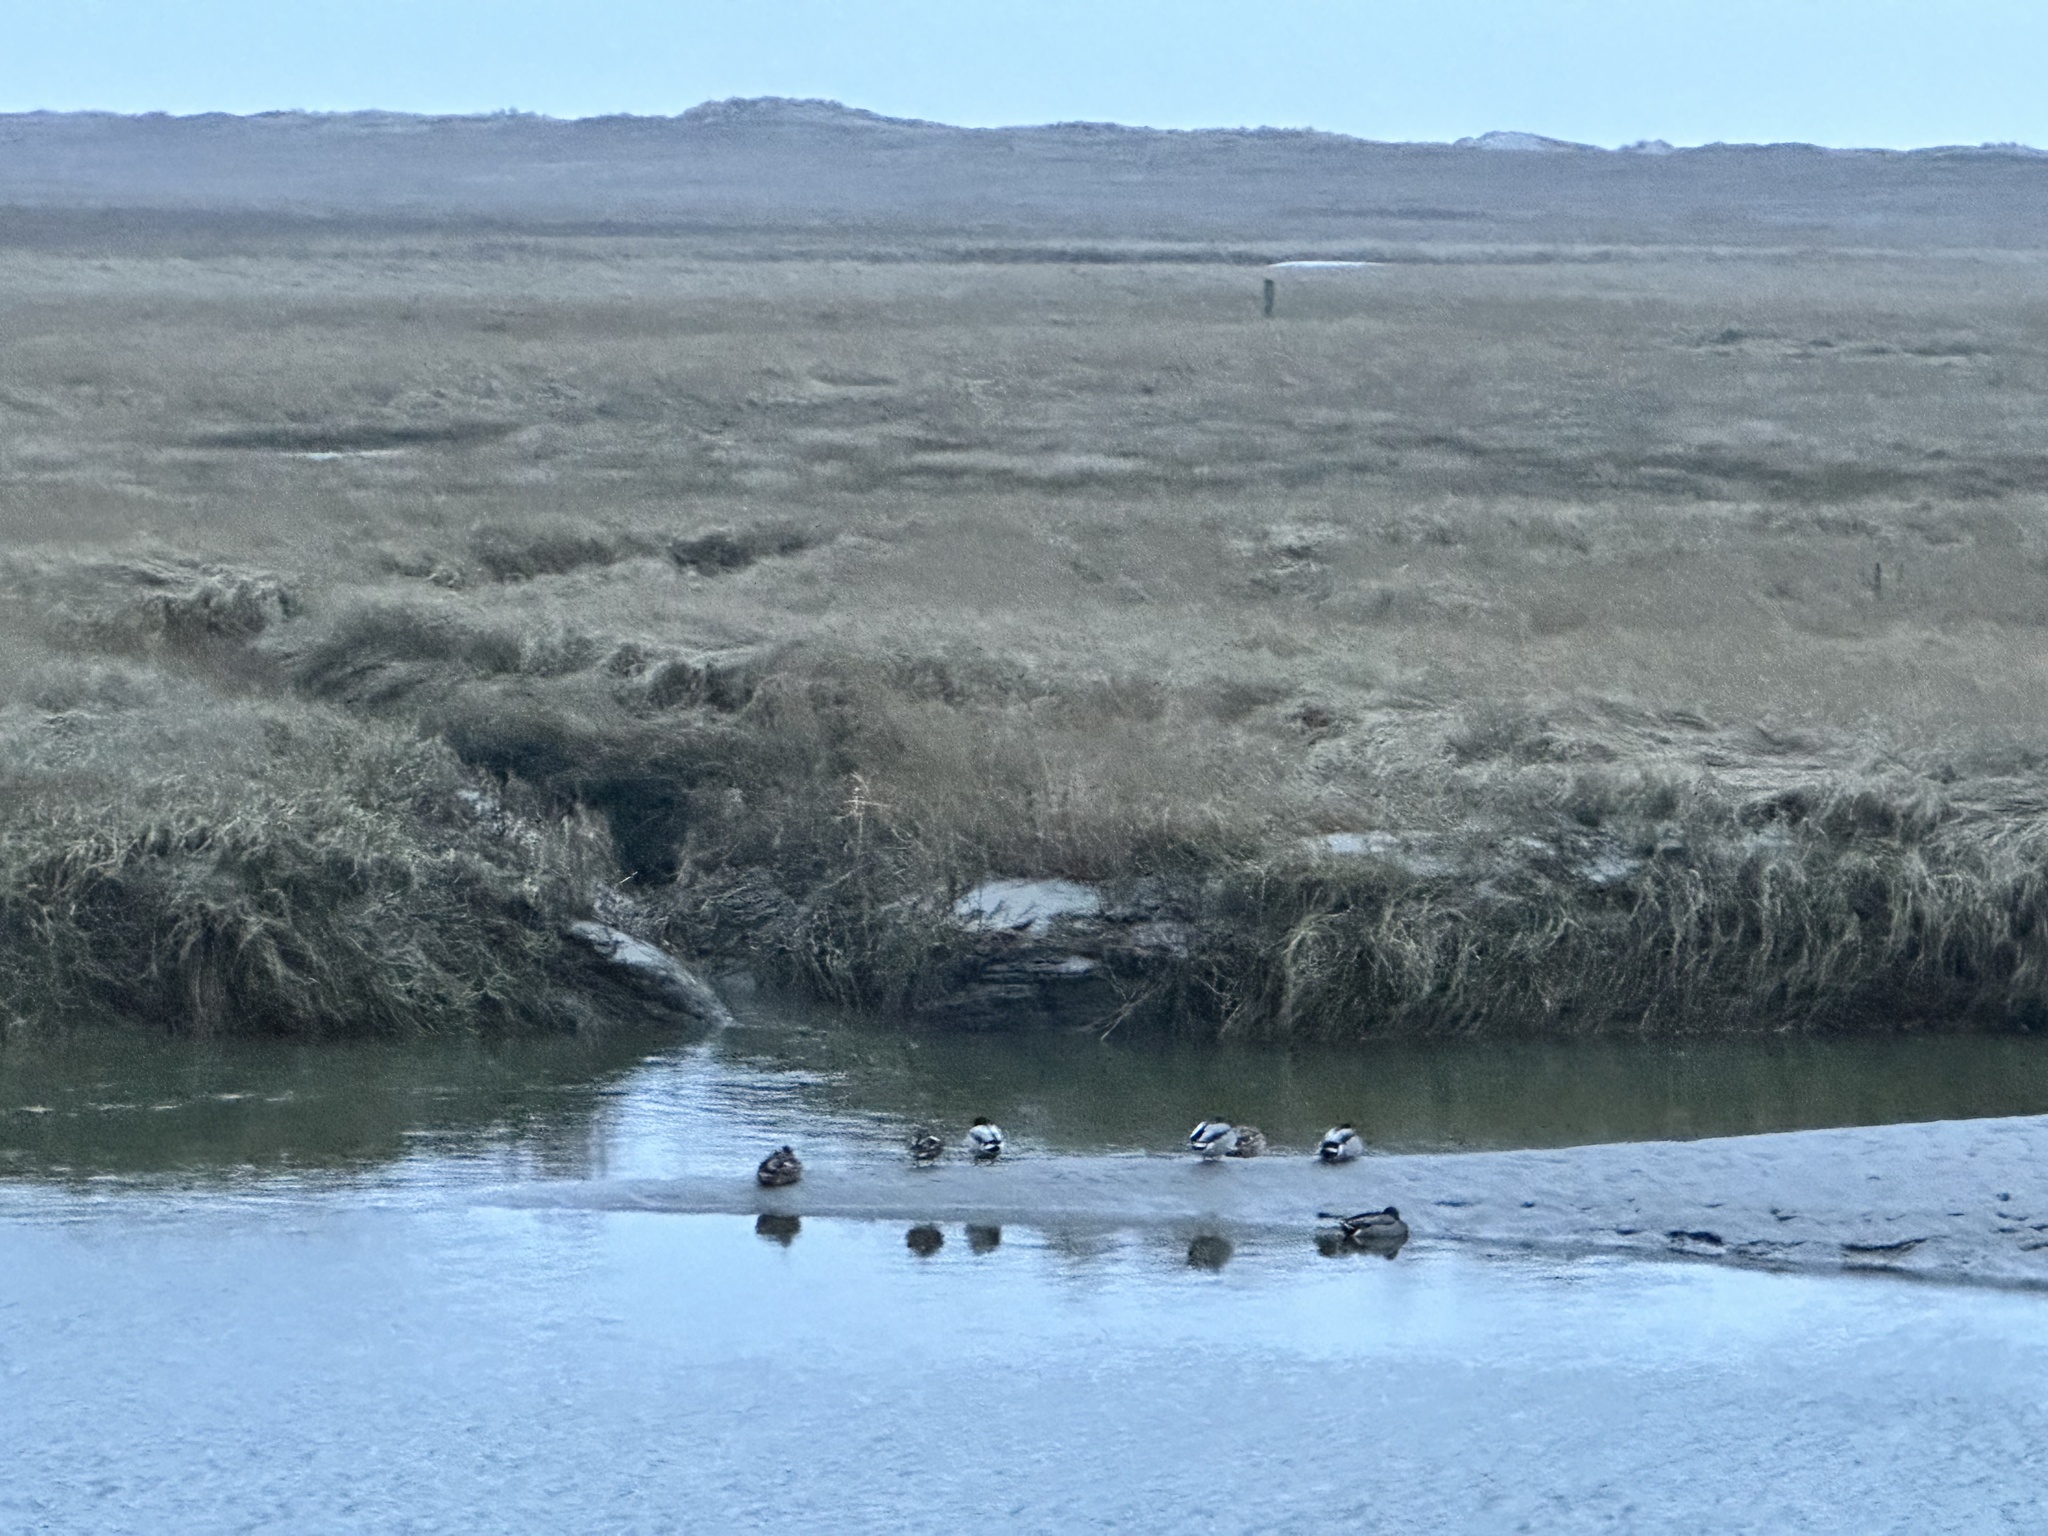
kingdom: Animalia
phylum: Chordata
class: Aves
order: Anseriformes
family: Anatidae
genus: Anas
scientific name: Anas platyrhynchos
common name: Mallard
